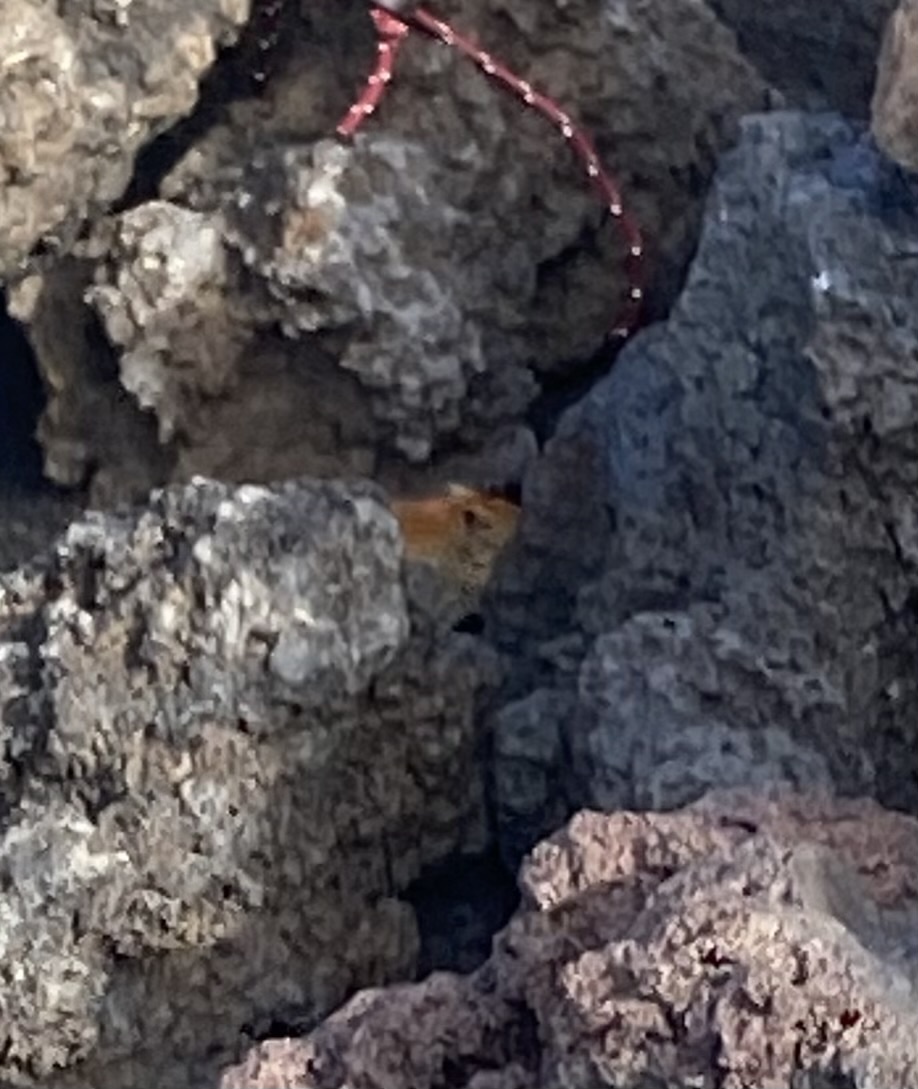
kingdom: Animalia
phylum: Chordata
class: Mammalia
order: Rodentia
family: Cricetidae
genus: Myodes
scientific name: Myodes rutilus
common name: Northern red-backed vole
